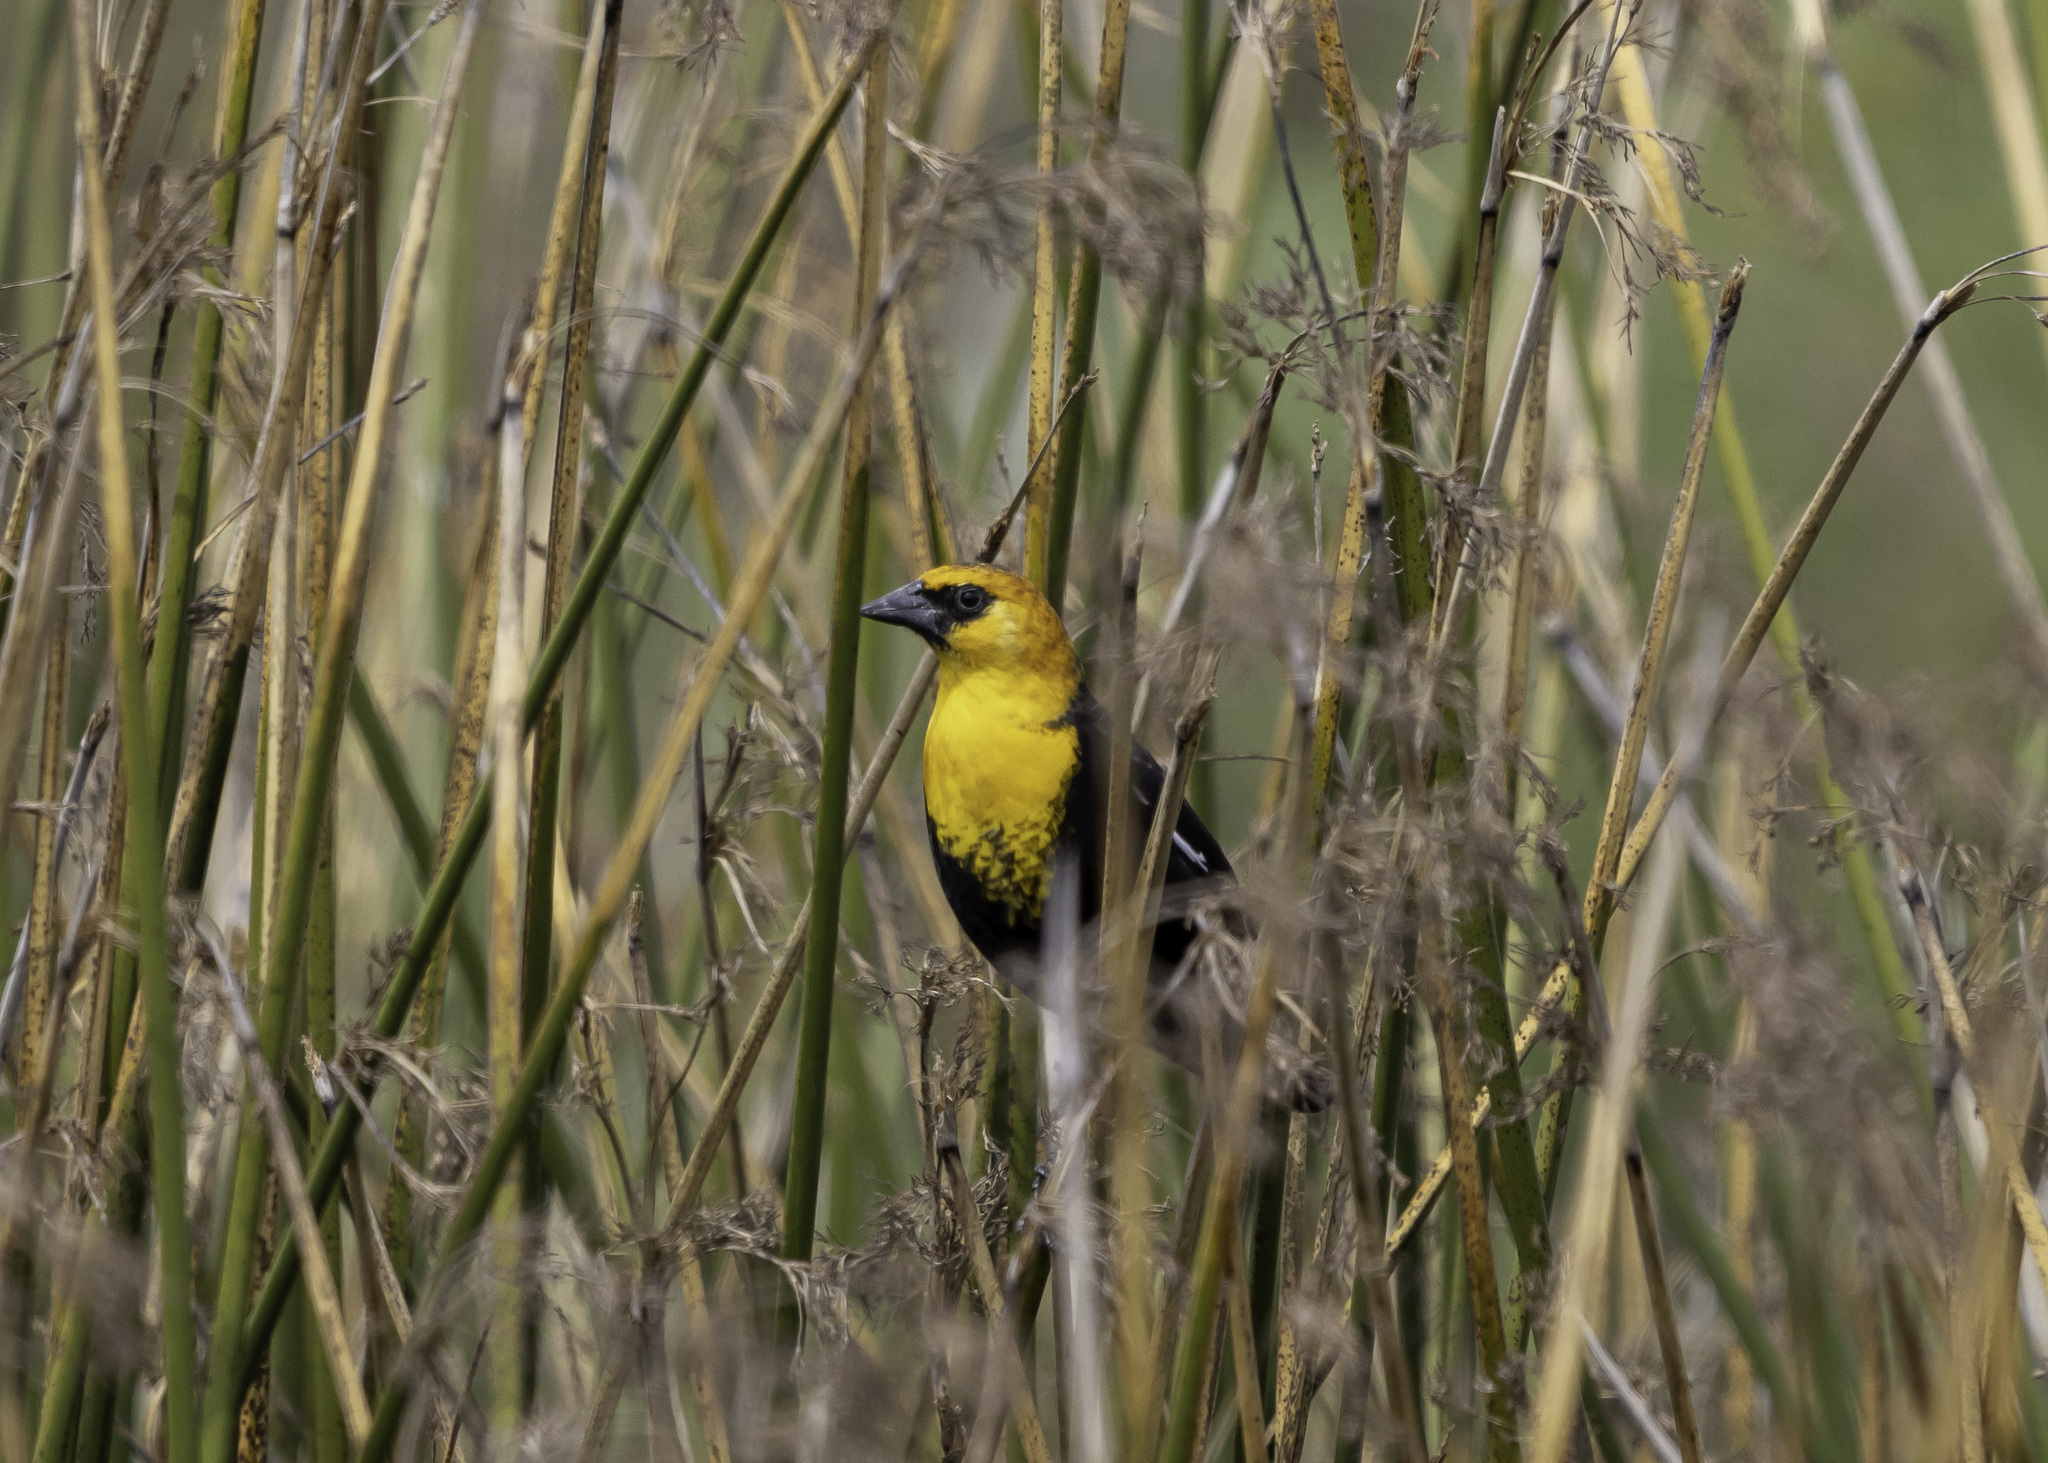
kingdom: Animalia
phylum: Chordata
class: Aves
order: Passeriformes
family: Icteridae
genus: Xanthocephalus
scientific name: Xanthocephalus xanthocephalus
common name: Yellow-headed blackbird
